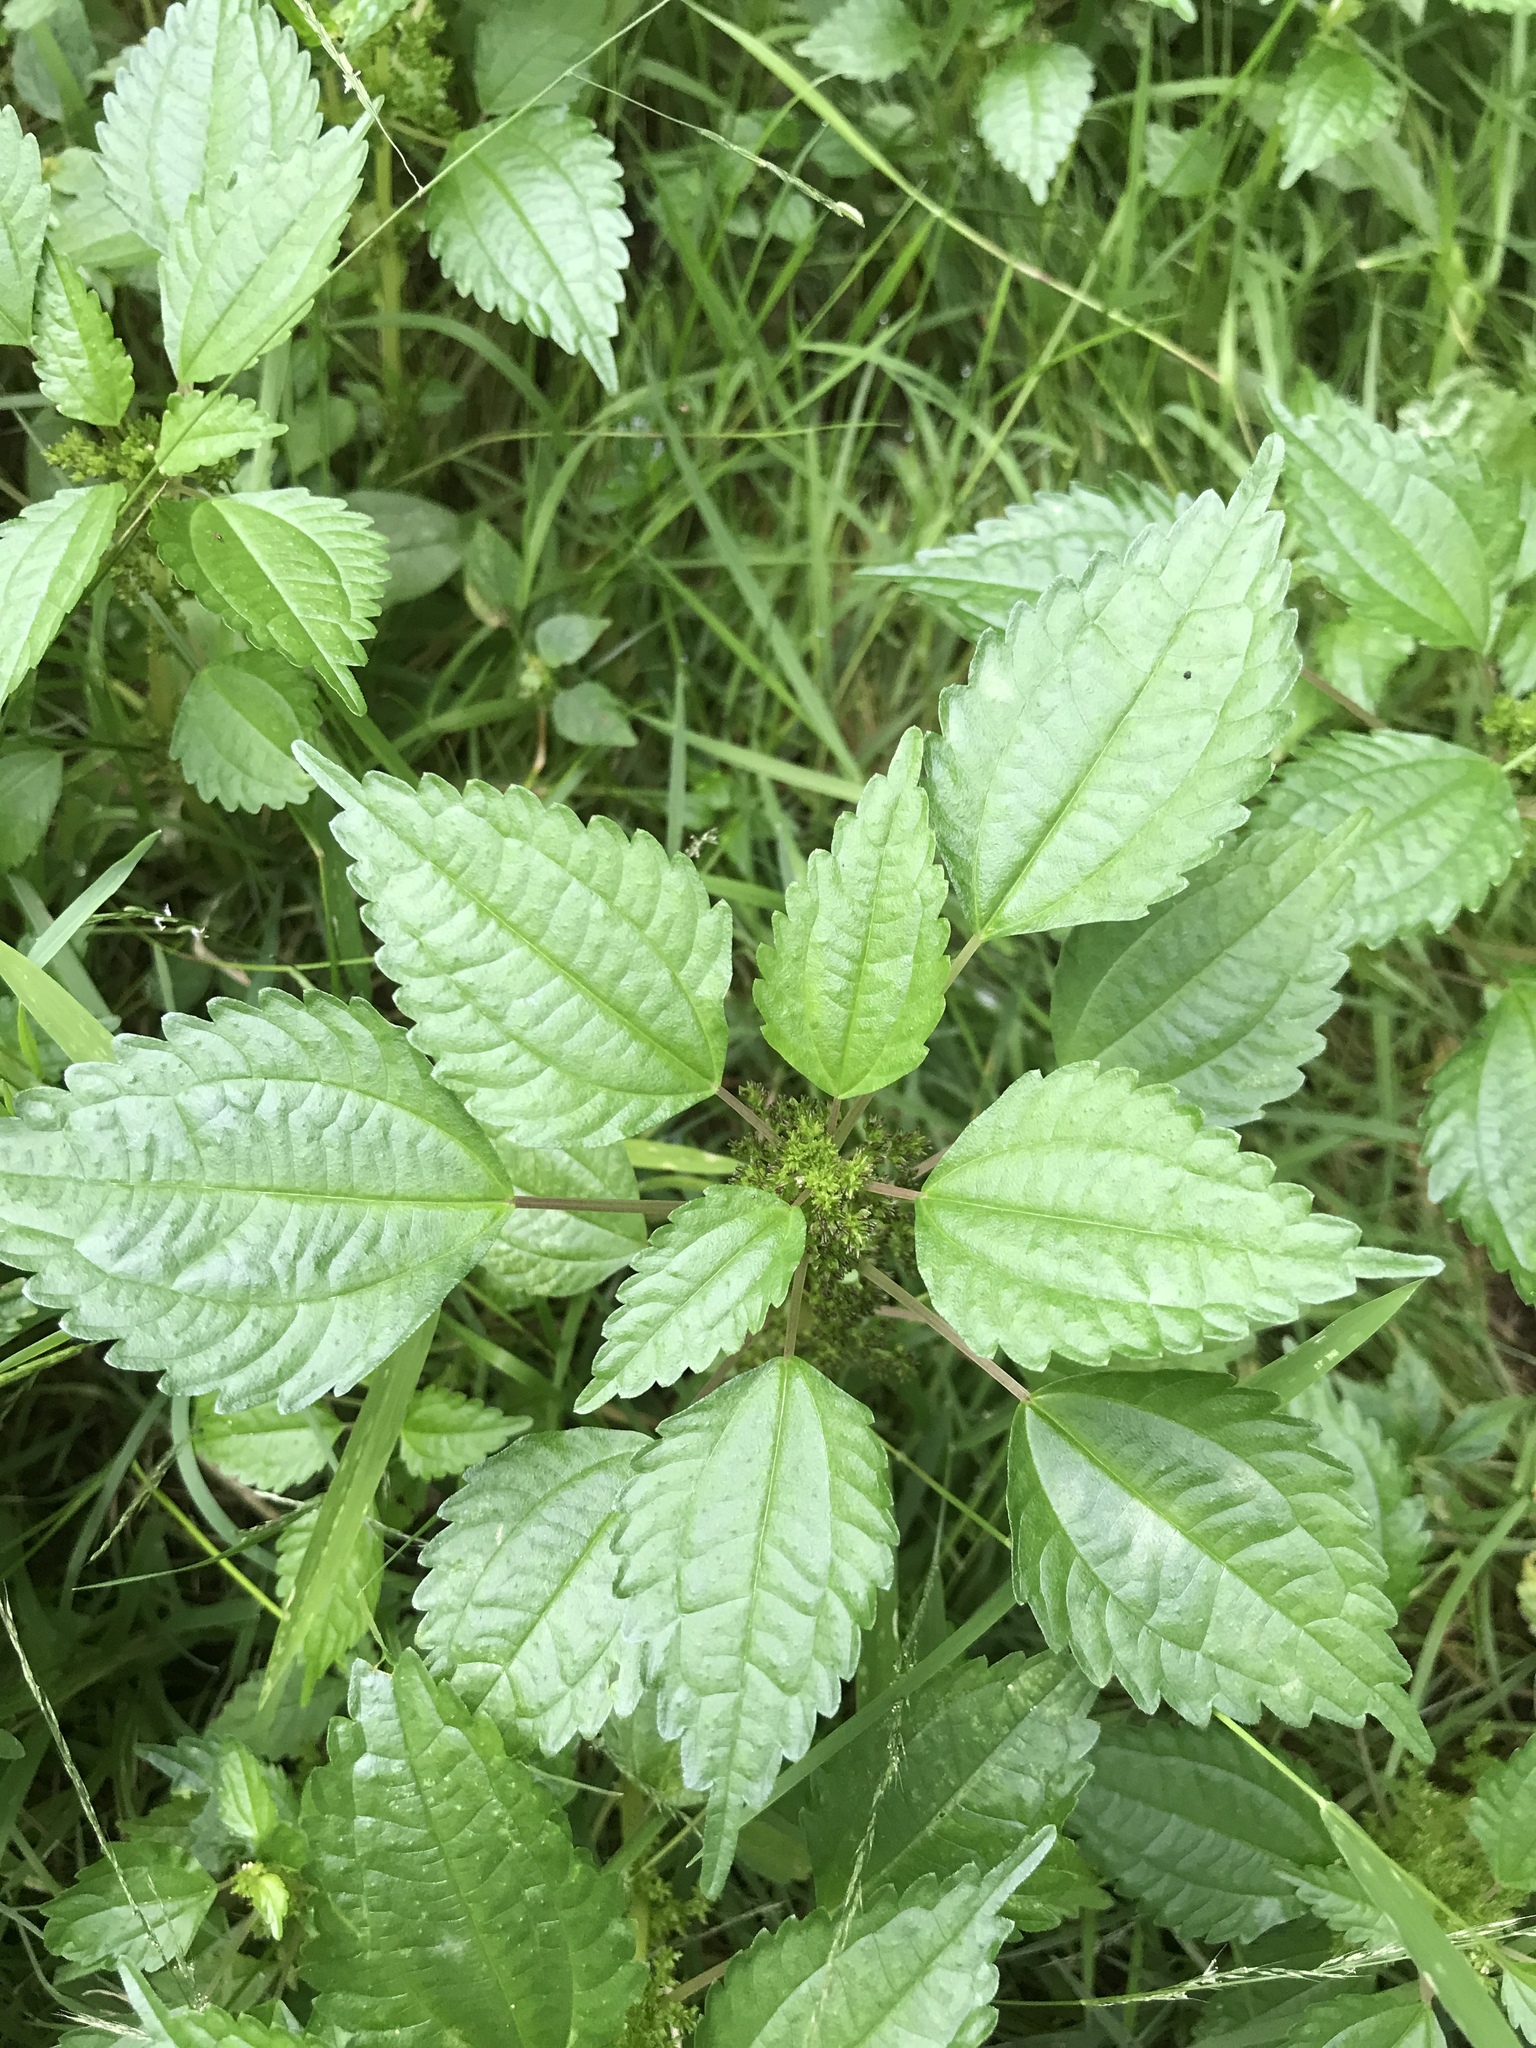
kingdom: Plantae
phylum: Tracheophyta
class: Magnoliopsida
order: Rosales
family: Urticaceae
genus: Pilea
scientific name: Pilea pumila
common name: Clearweed
